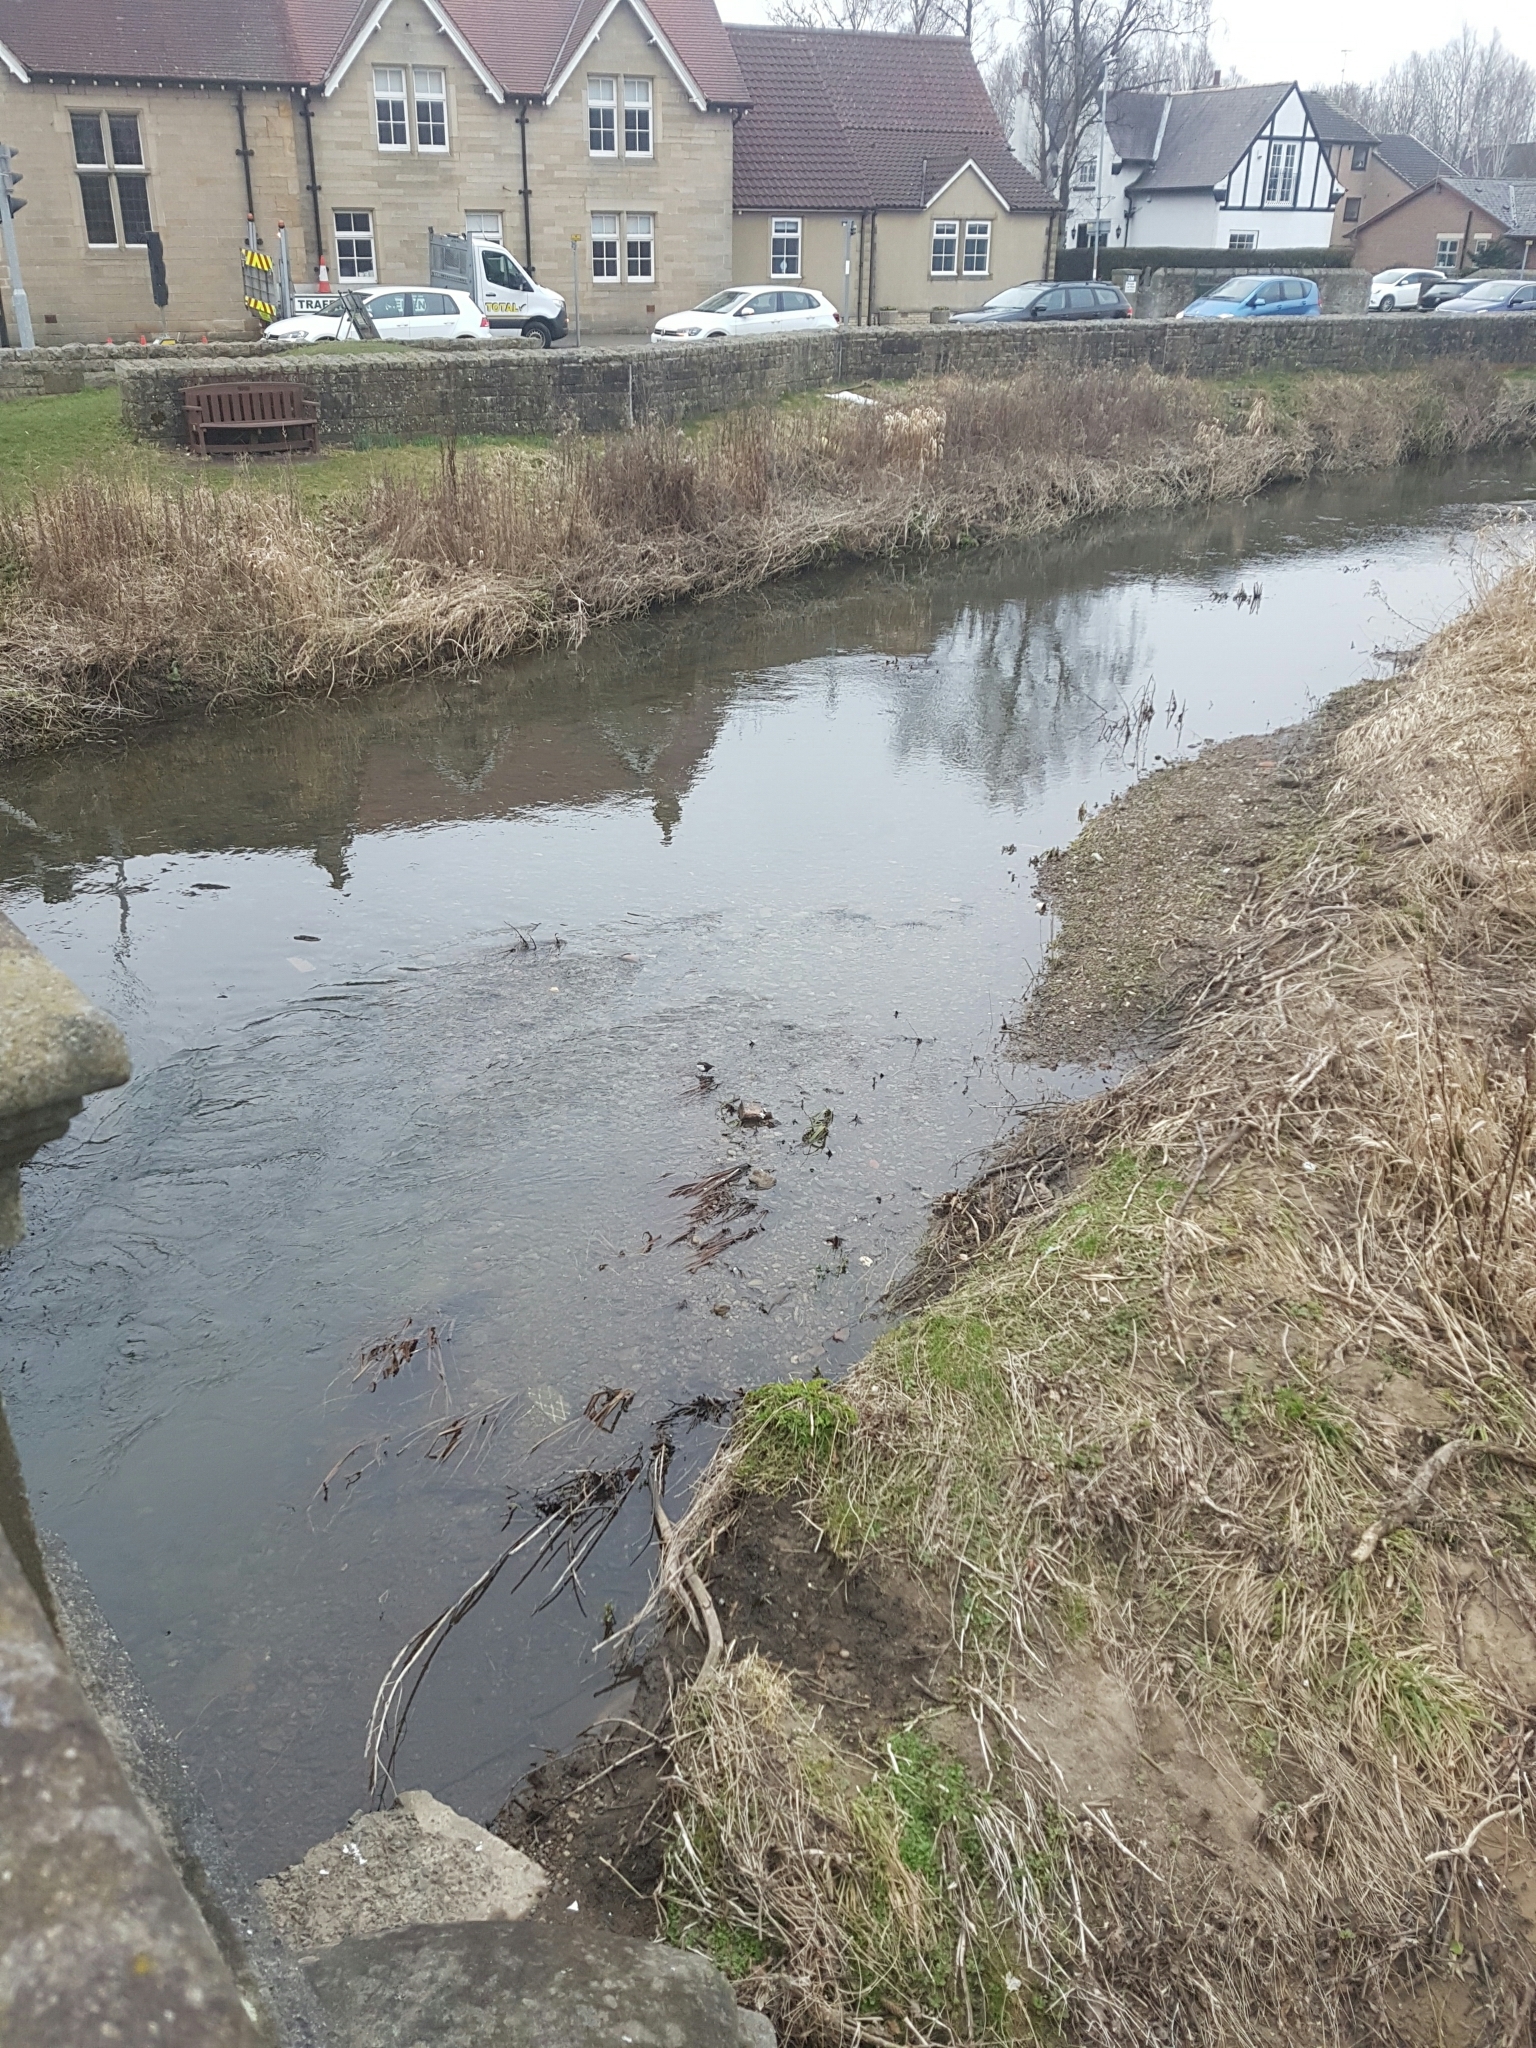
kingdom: Animalia
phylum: Chordata
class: Aves
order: Passeriformes
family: Cinclidae
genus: Cinclus
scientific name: Cinclus cinclus
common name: White-throated dipper
